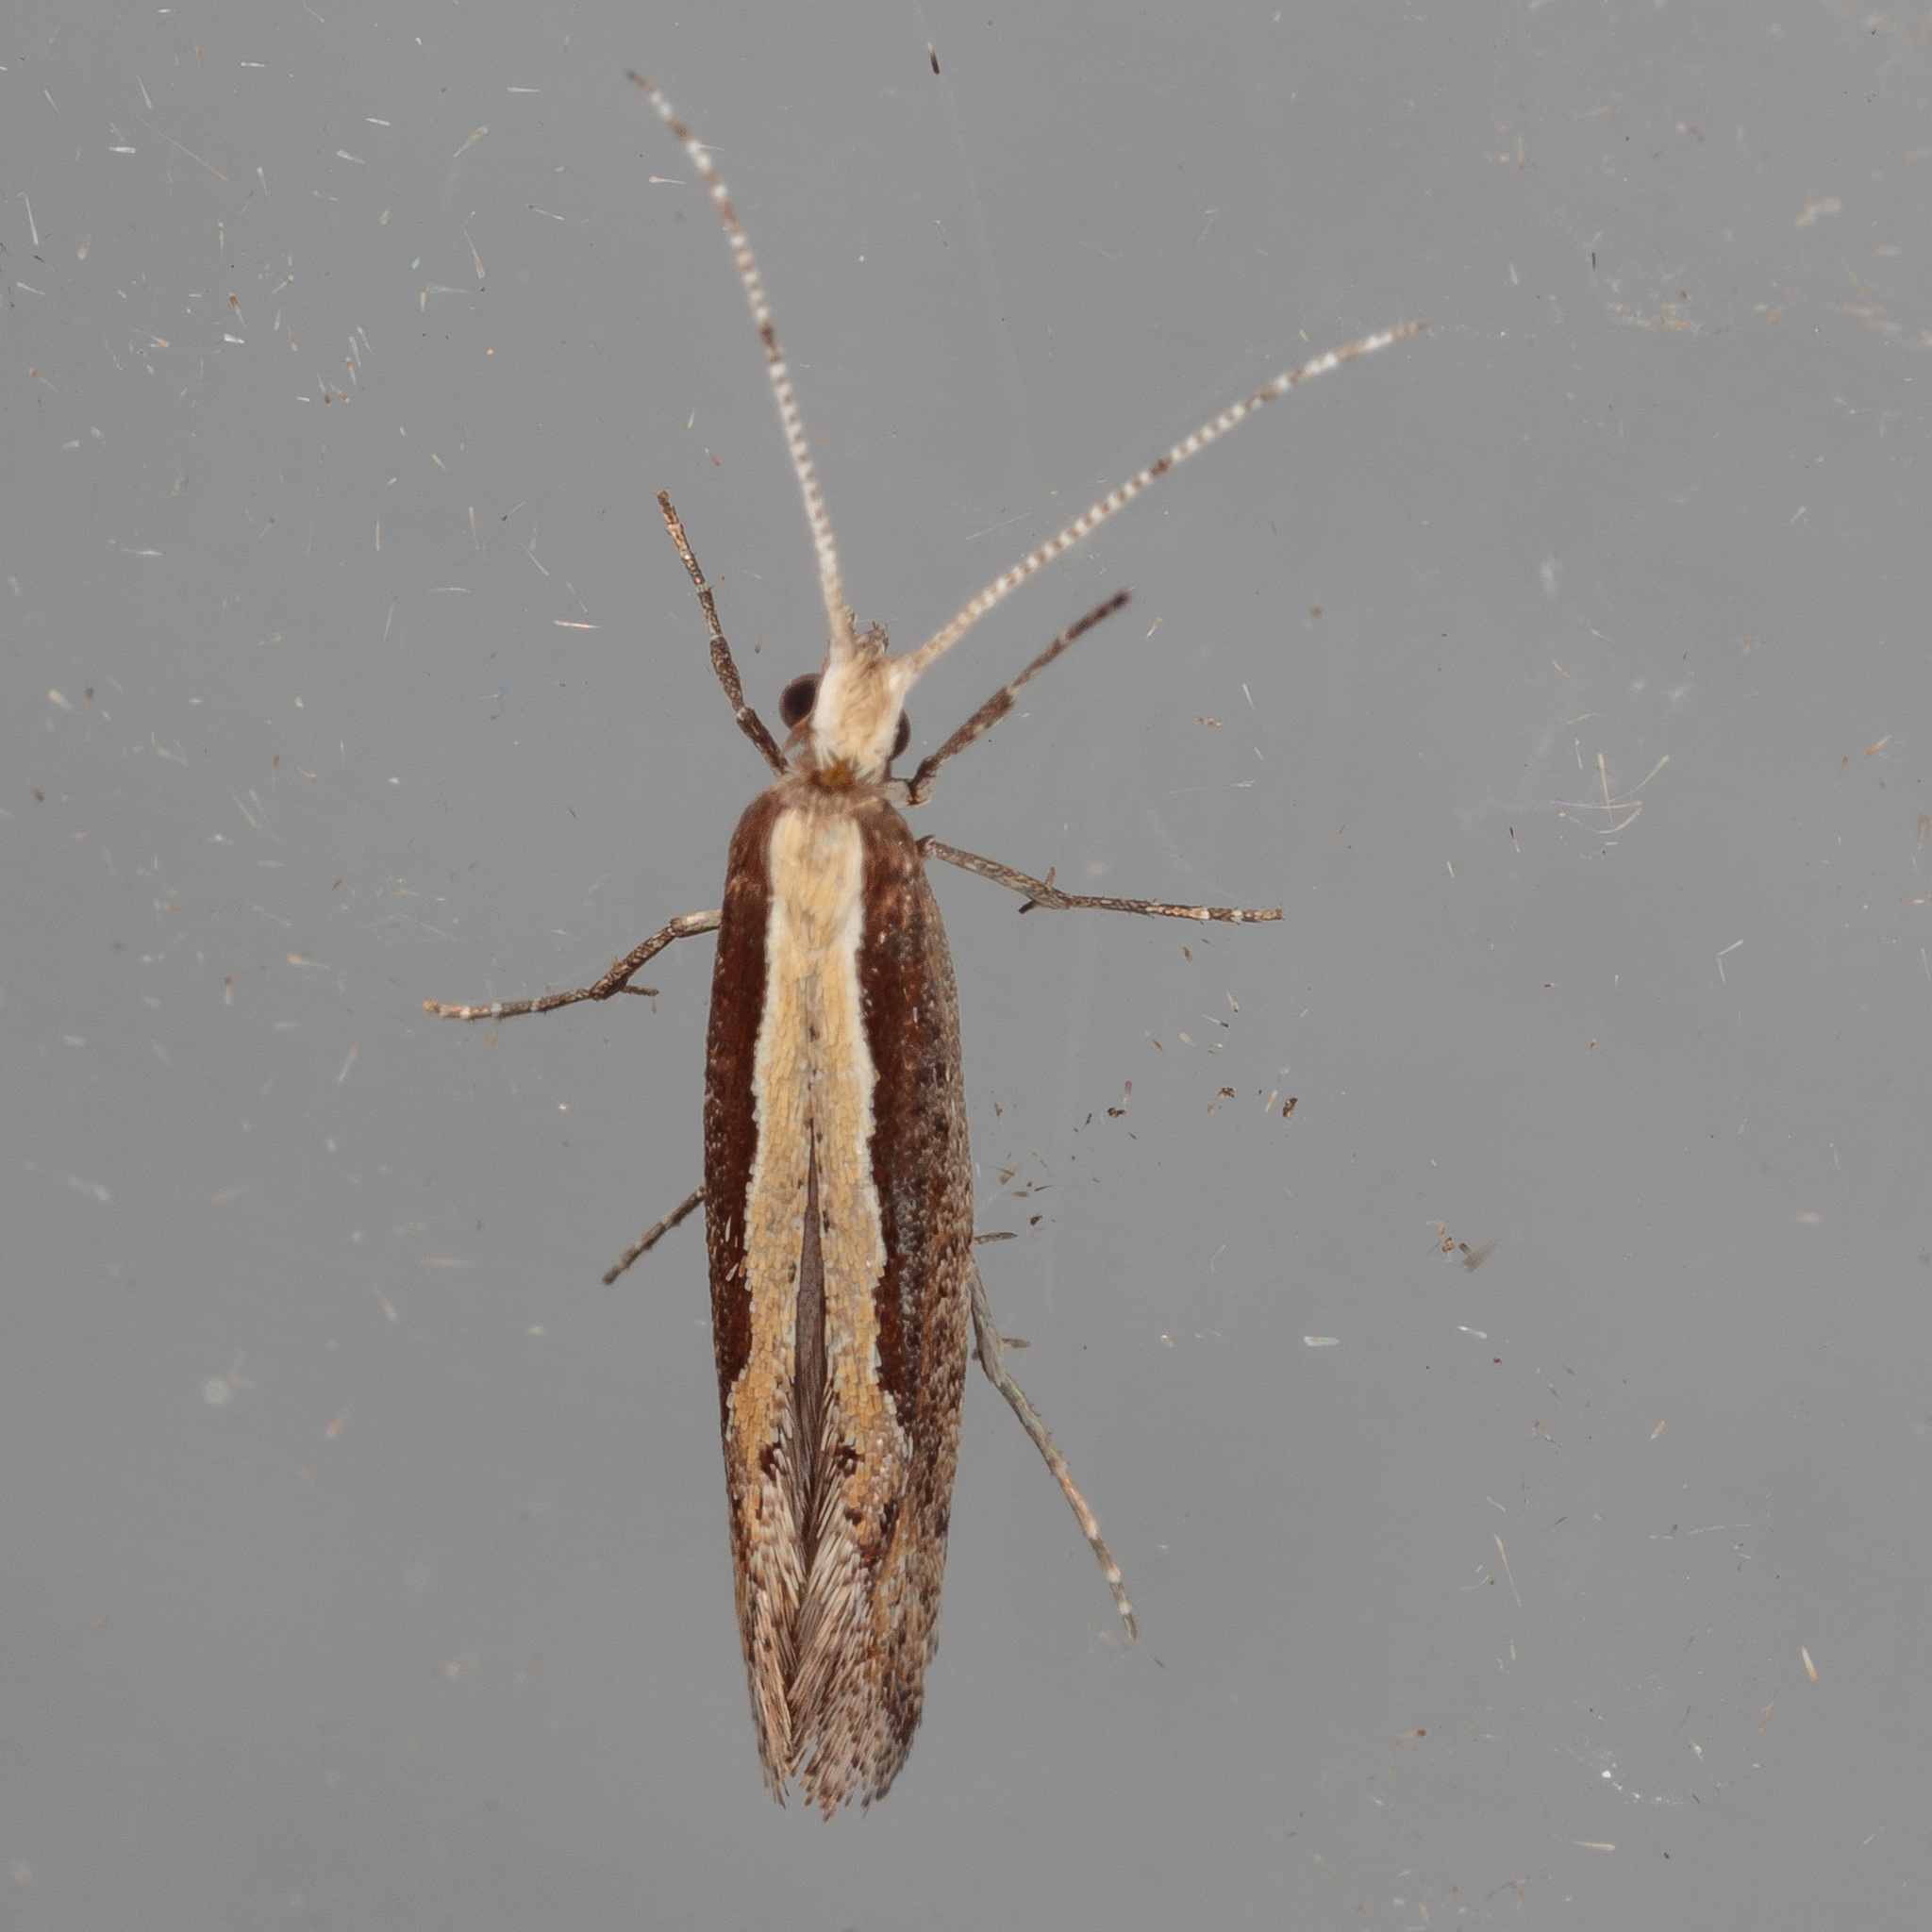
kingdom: Animalia
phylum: Arthropoda
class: Insecta
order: Lepidoptera
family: Plutellidae
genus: Plutella
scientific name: Plutella xylostella
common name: Diamond-back moth
